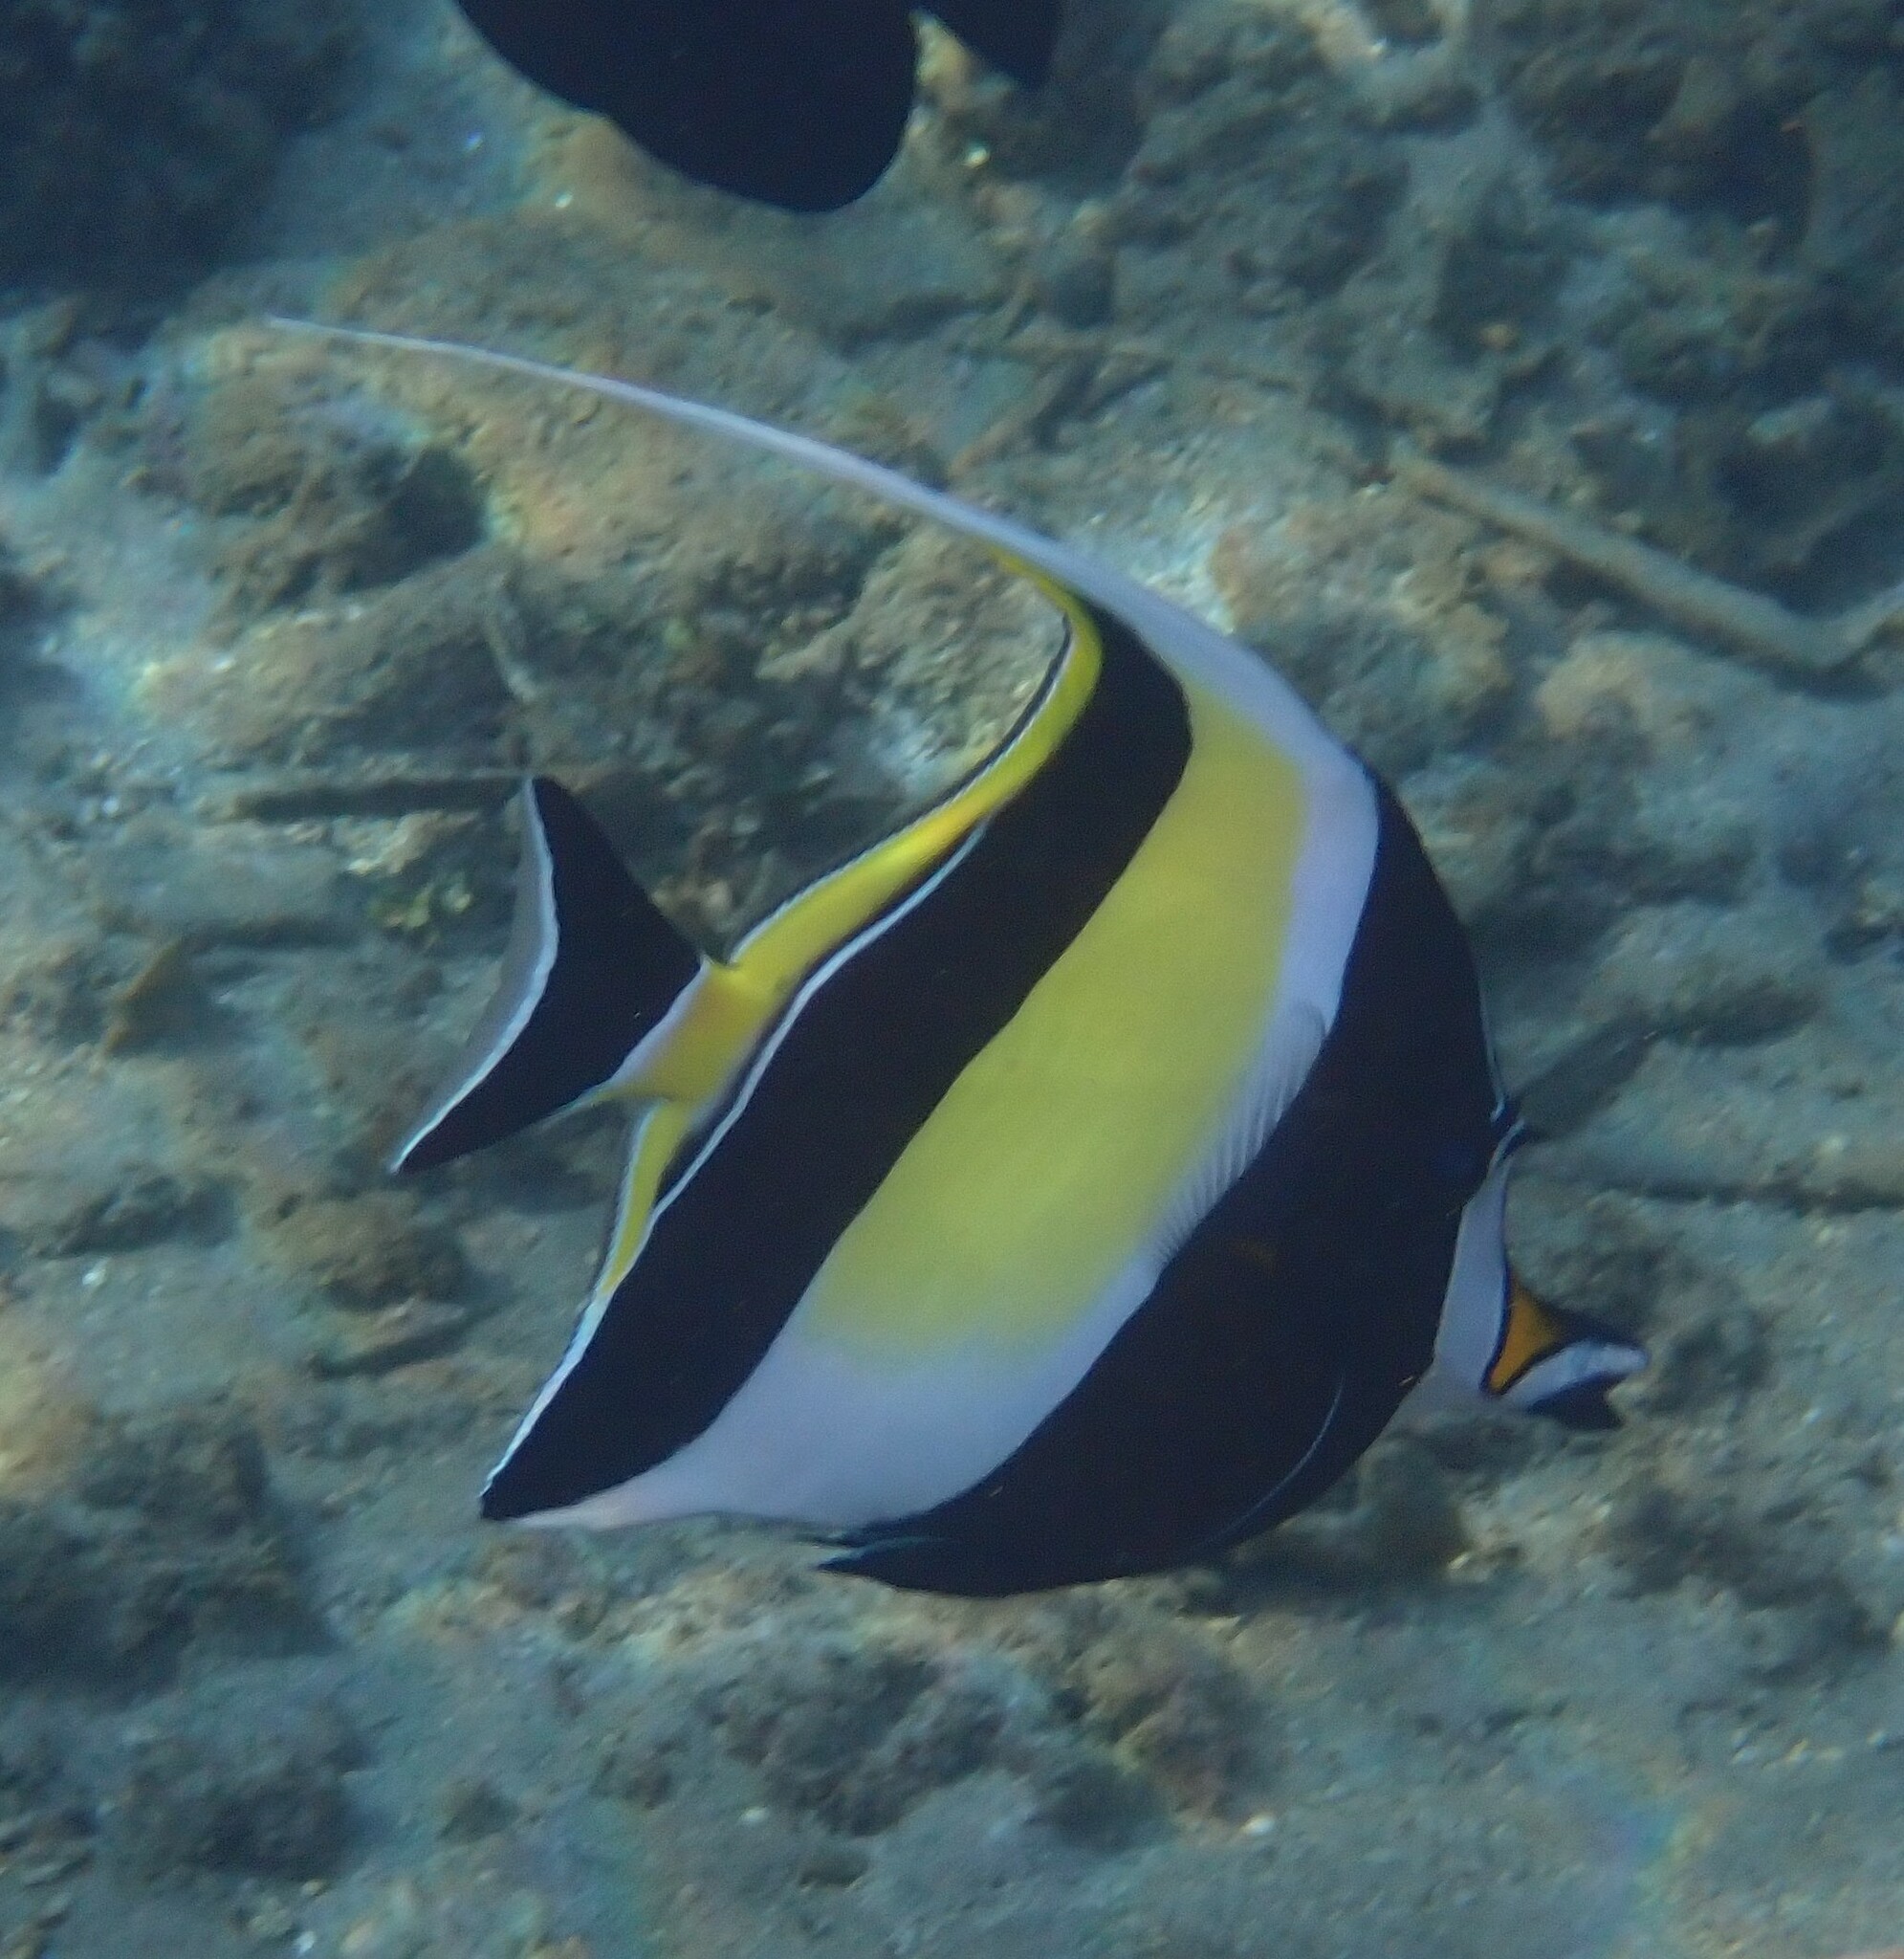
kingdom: Animalia
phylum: Chordata
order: Perciformes
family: Zanclidae
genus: Zanclus
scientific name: Zanclus cornutus
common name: Moorish idol
